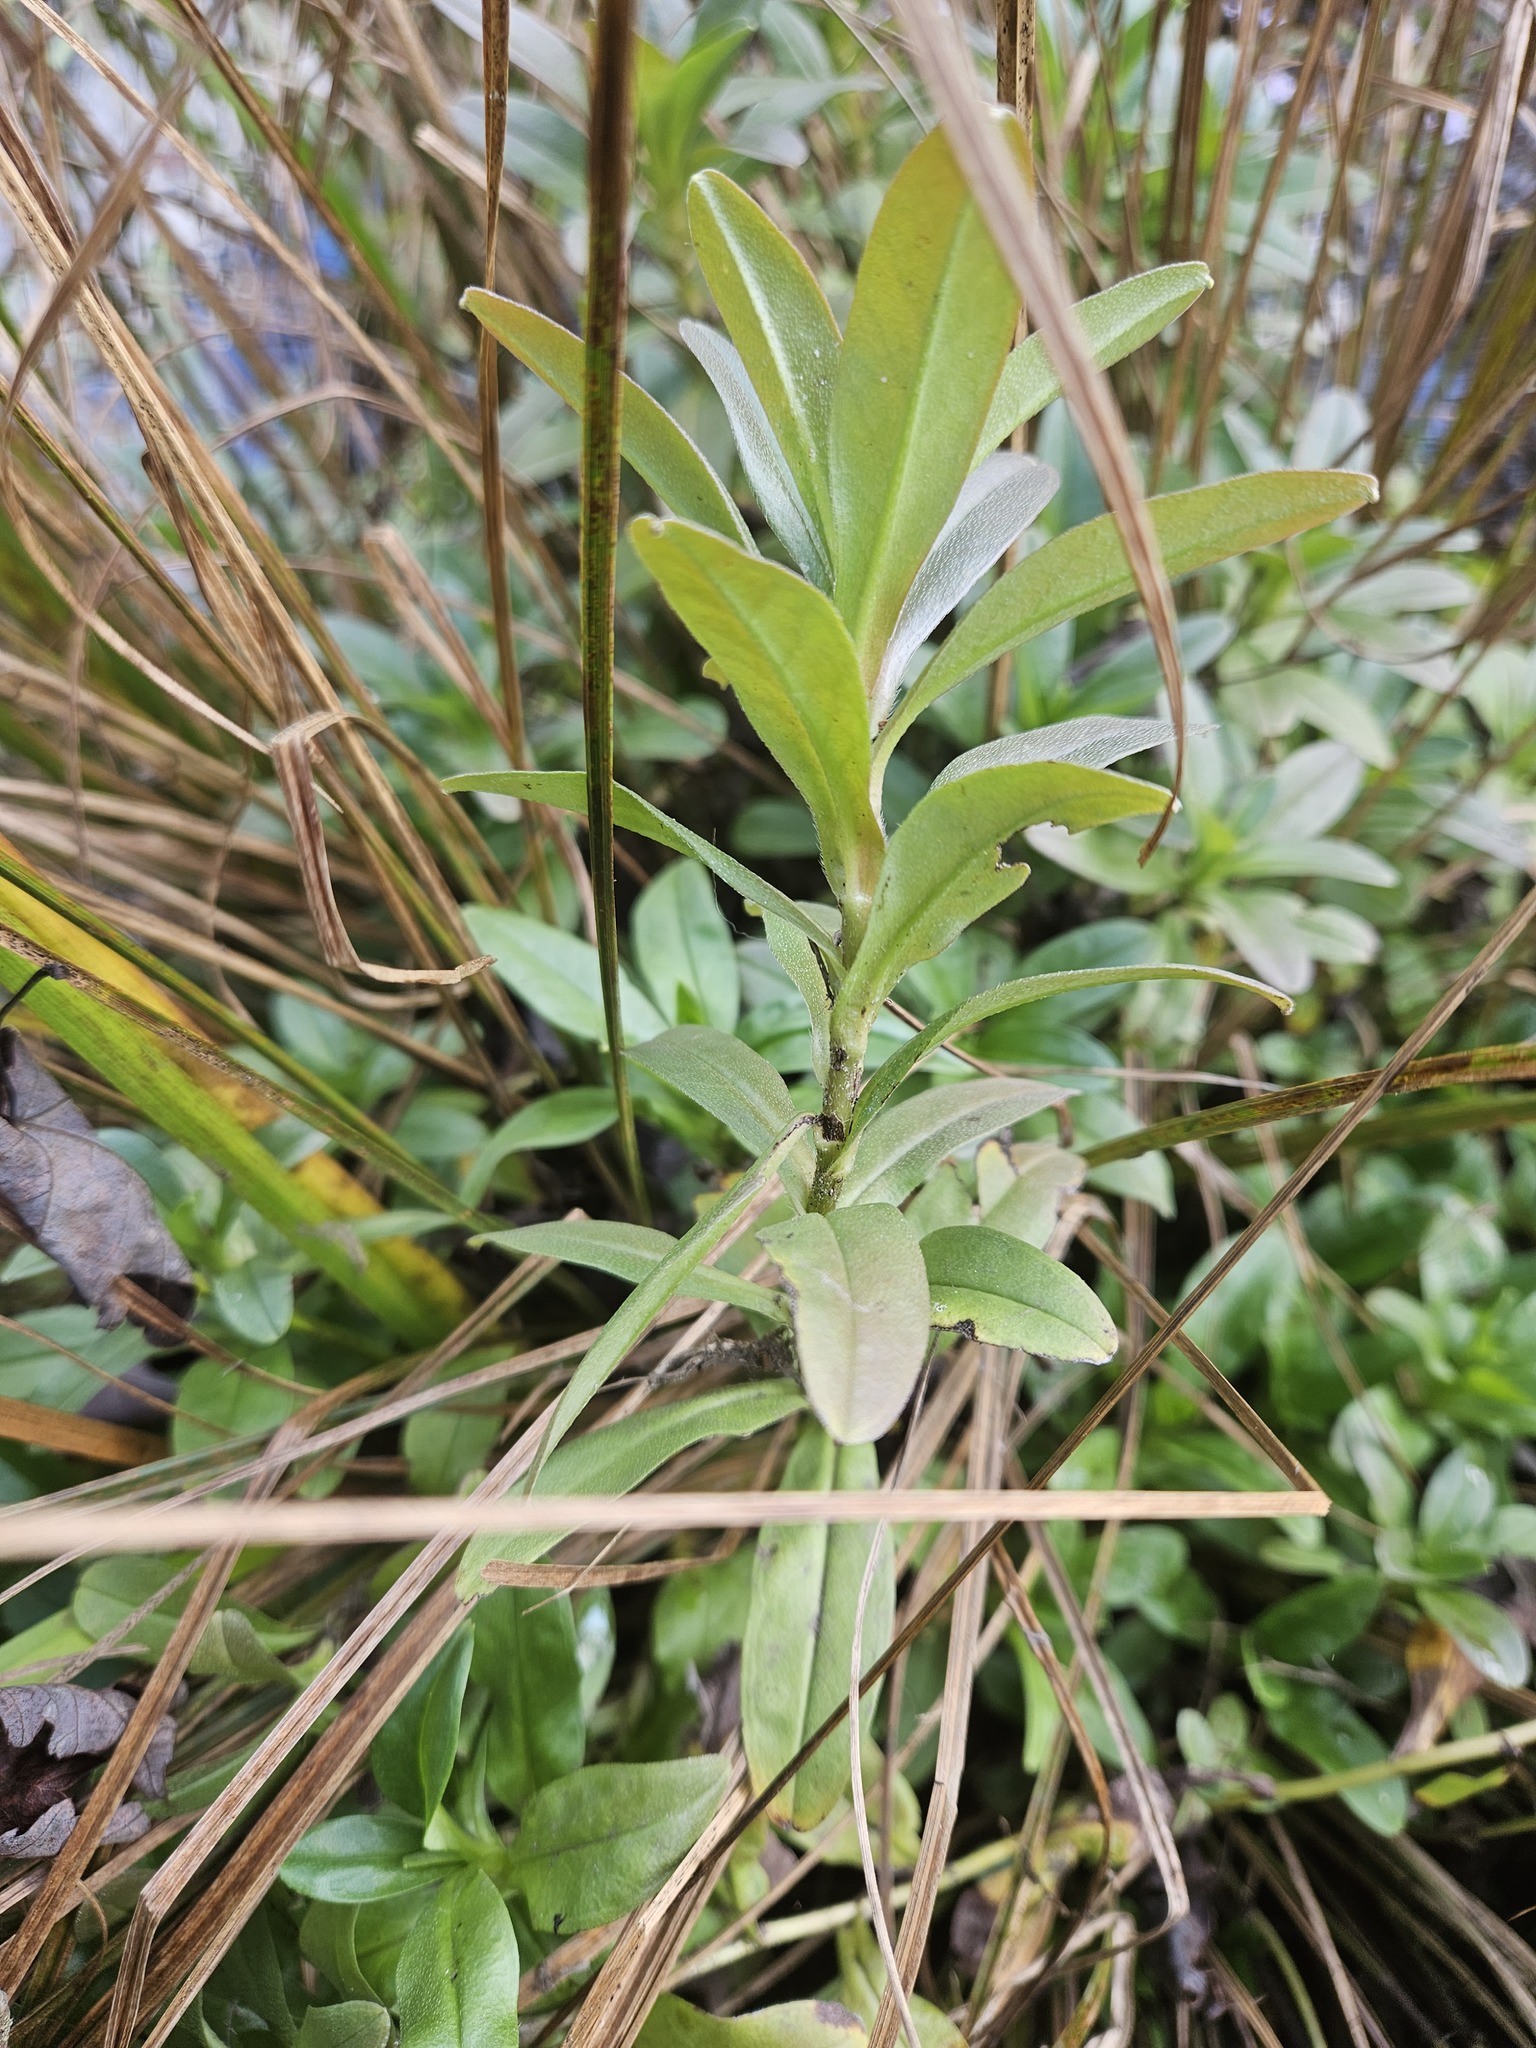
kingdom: Plantae
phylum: Tracheophyta
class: Magnoliopsida
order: Boraginales
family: Boraginaceae
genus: Myosotis
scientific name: Myosotis scorpioides
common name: Water forget-me-not
